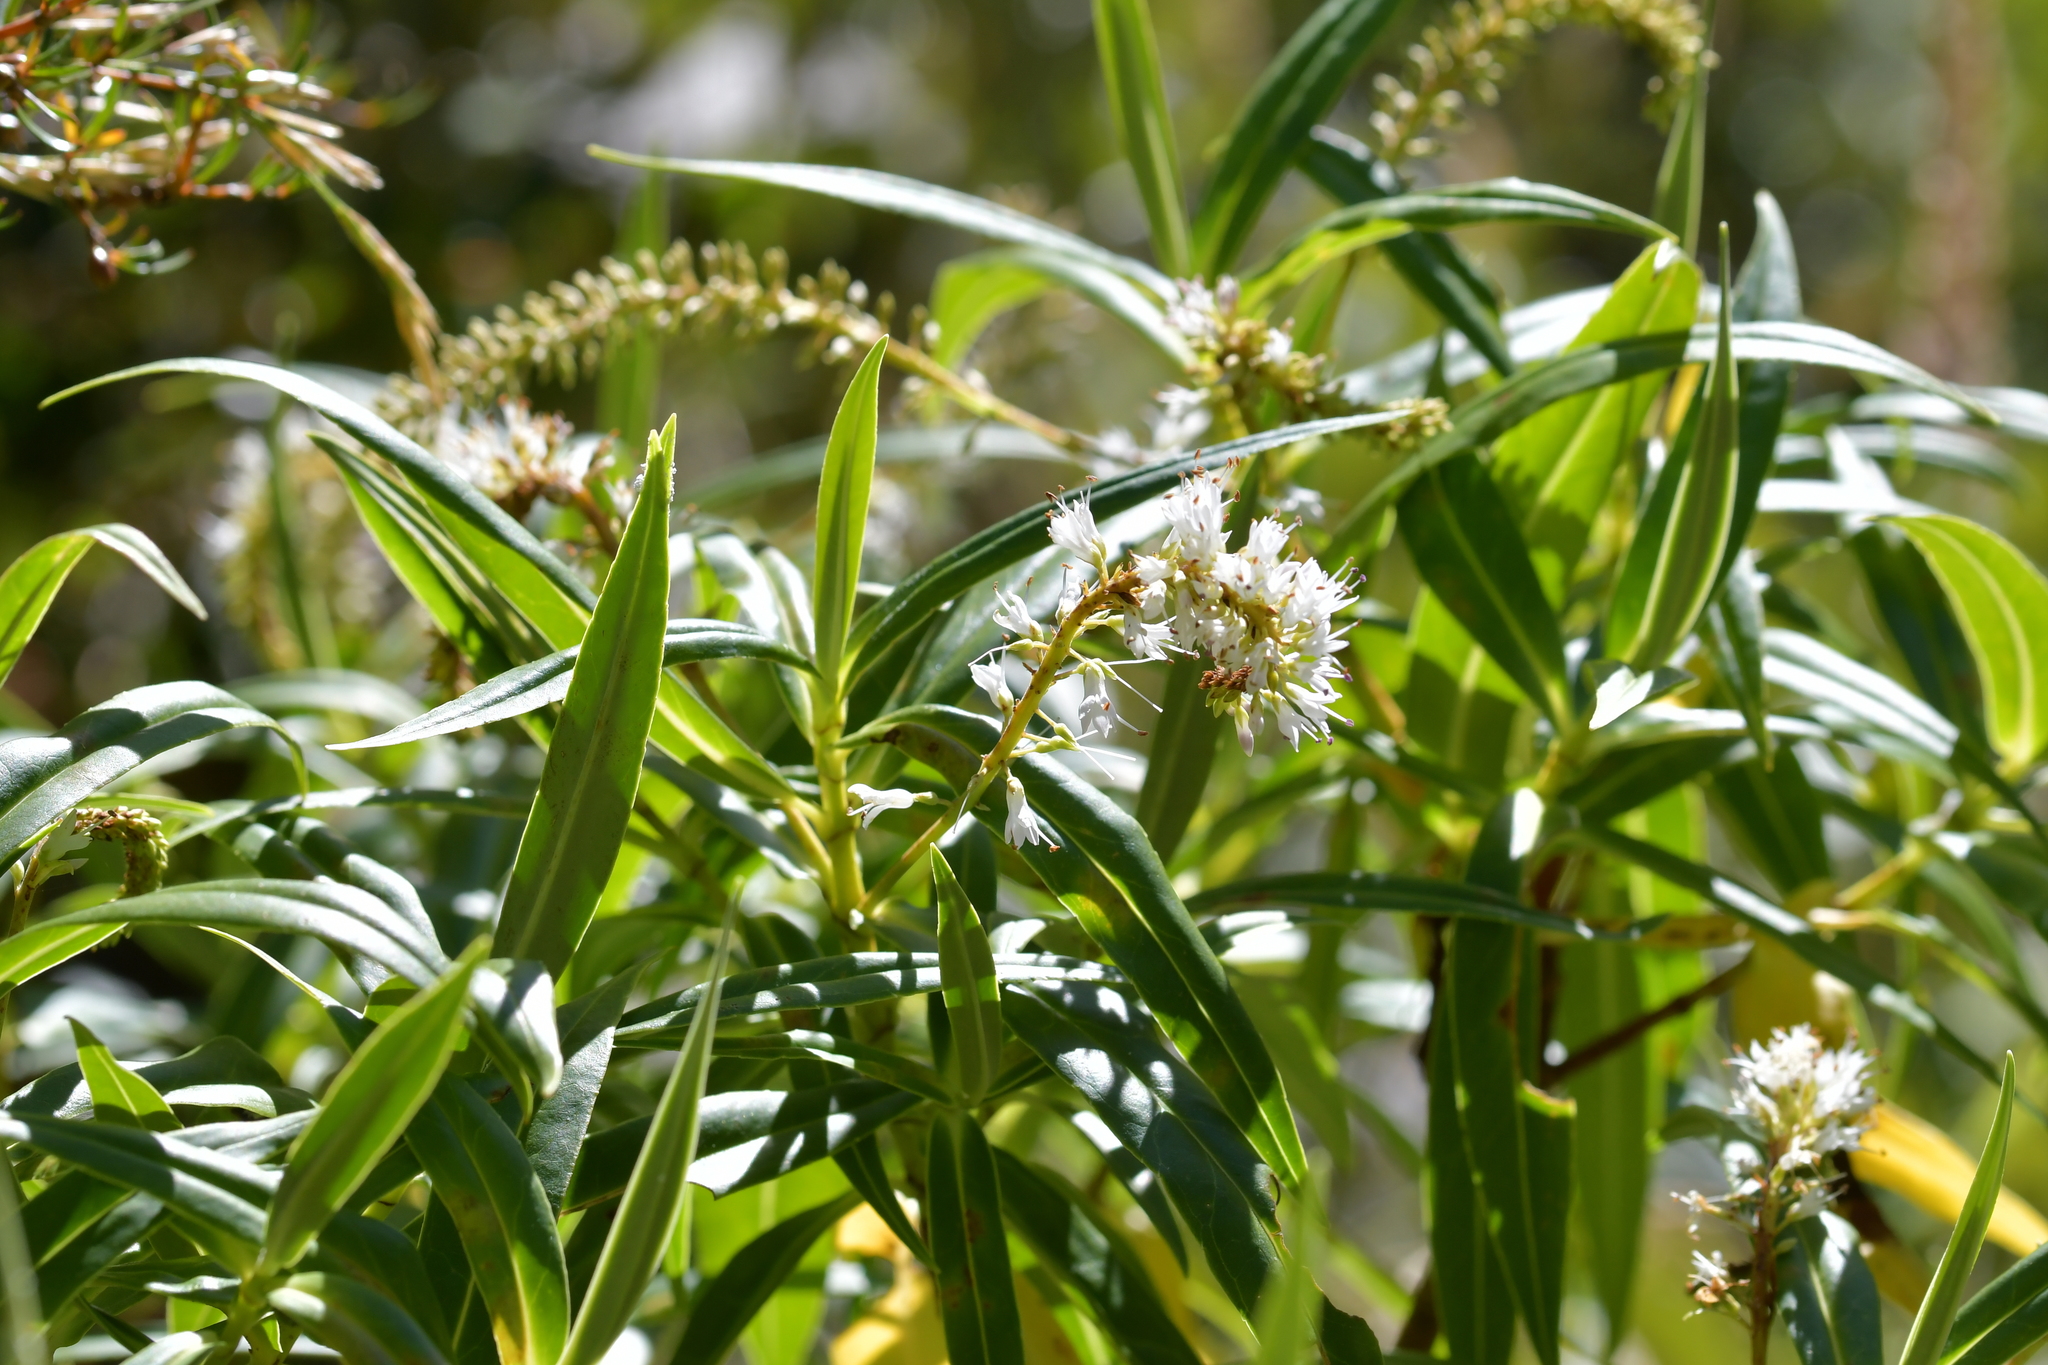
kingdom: Plantae
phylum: Tracheophyta
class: Magnoliopsida
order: Lamiales
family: Plantaginaceae
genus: Veronica
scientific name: Veronica salicifolia
